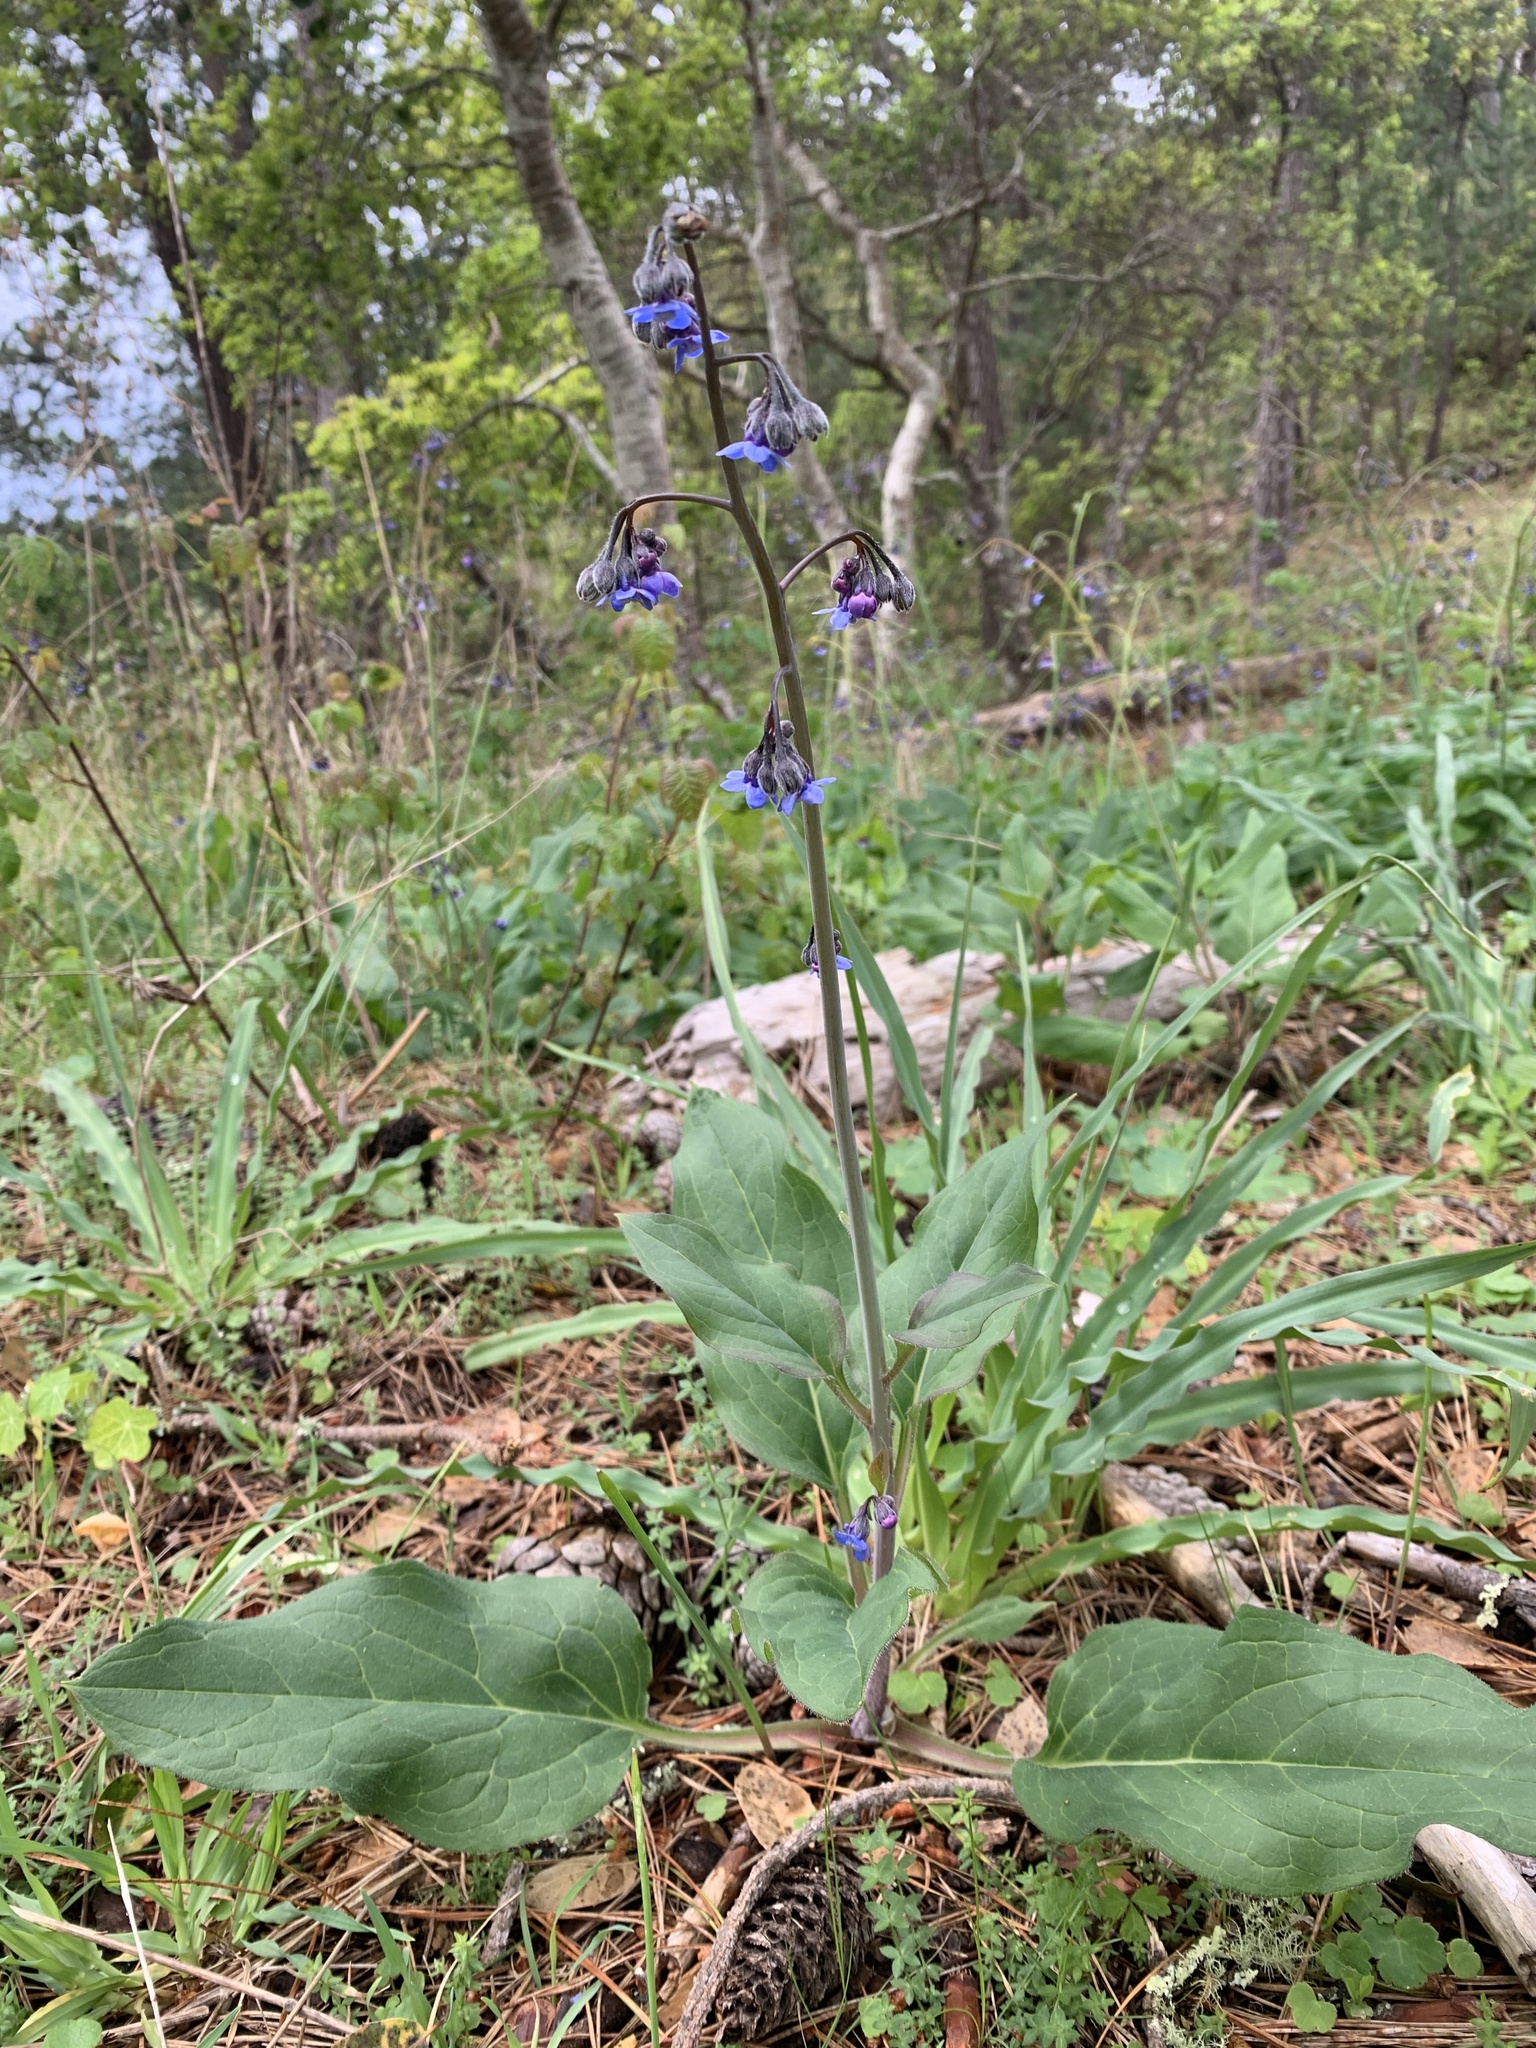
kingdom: Plantae
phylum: Tracheophyta
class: Magnoliopsida
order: Boraginales
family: Boraginaceae
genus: Adelinia
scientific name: Adelinia grande
